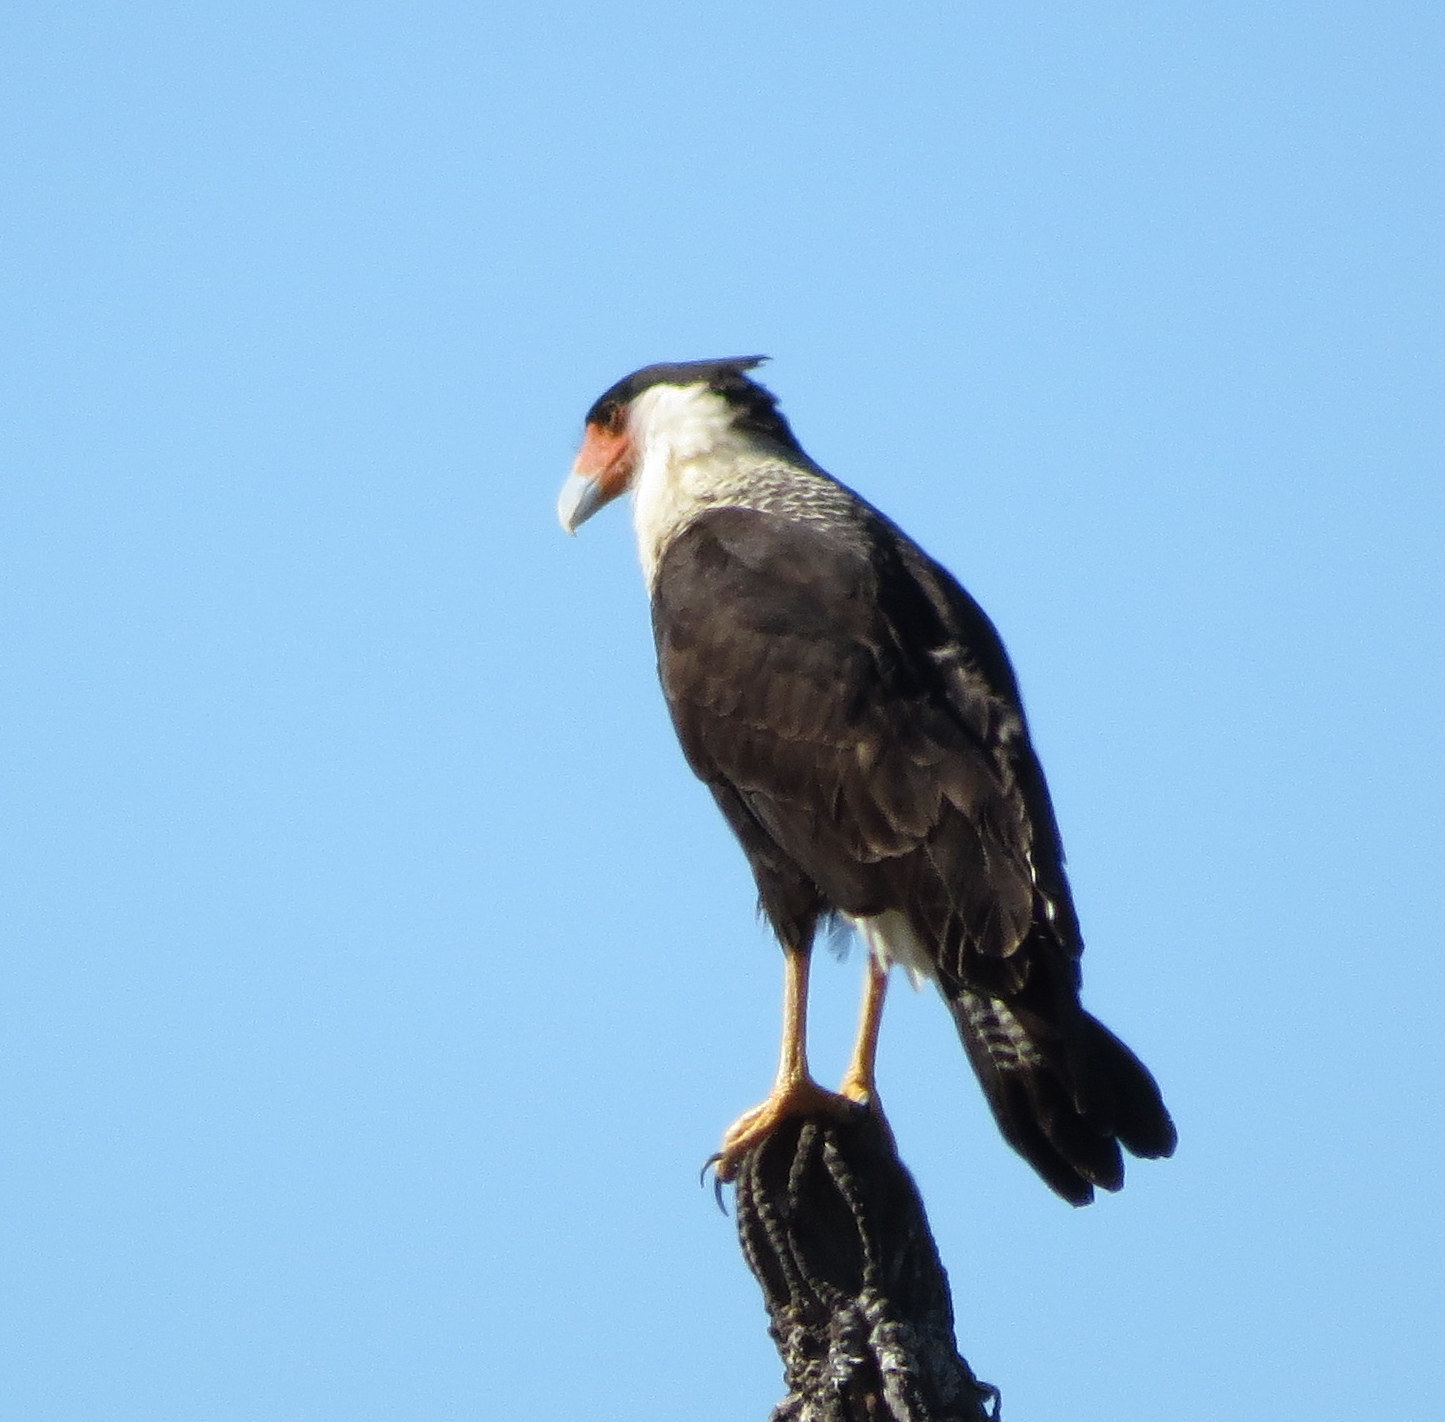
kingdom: Animalia
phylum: Chordata
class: Aves
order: Falconiformes
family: Falconidae
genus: Caracara
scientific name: Caracara plancus
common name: Southern caracara
